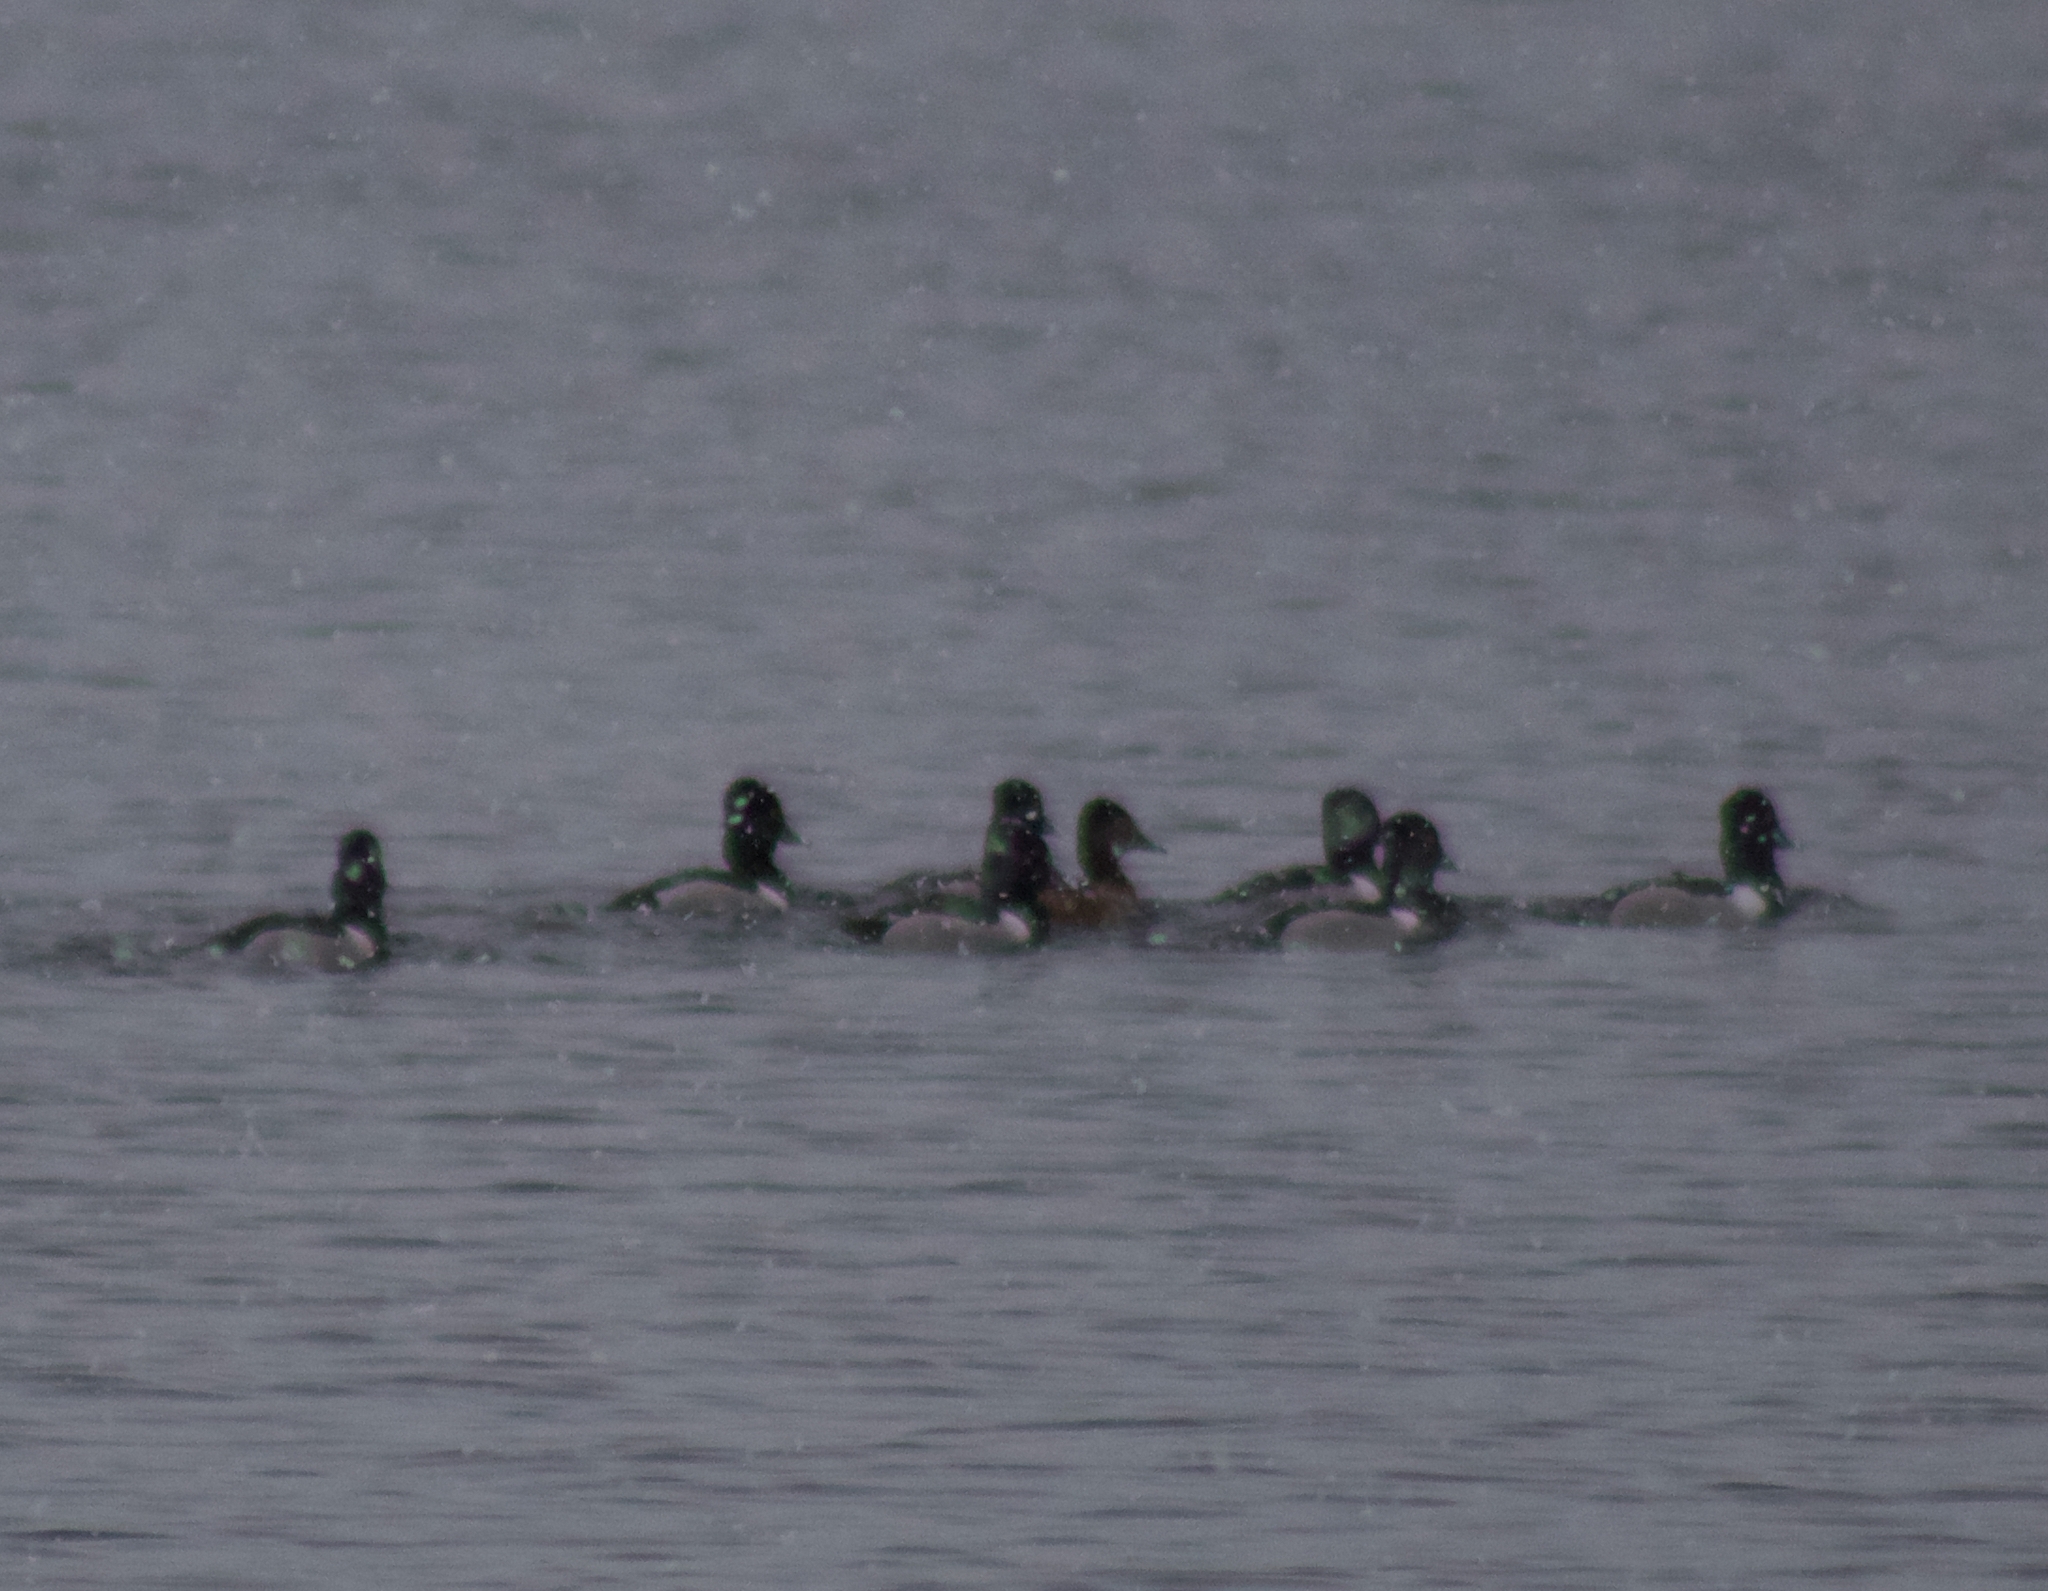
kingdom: Animalia
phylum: Chordata
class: Aves
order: Anseriformes
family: Anatidae
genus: Aythya
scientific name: Aythya collaris
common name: Ring-necked duck
